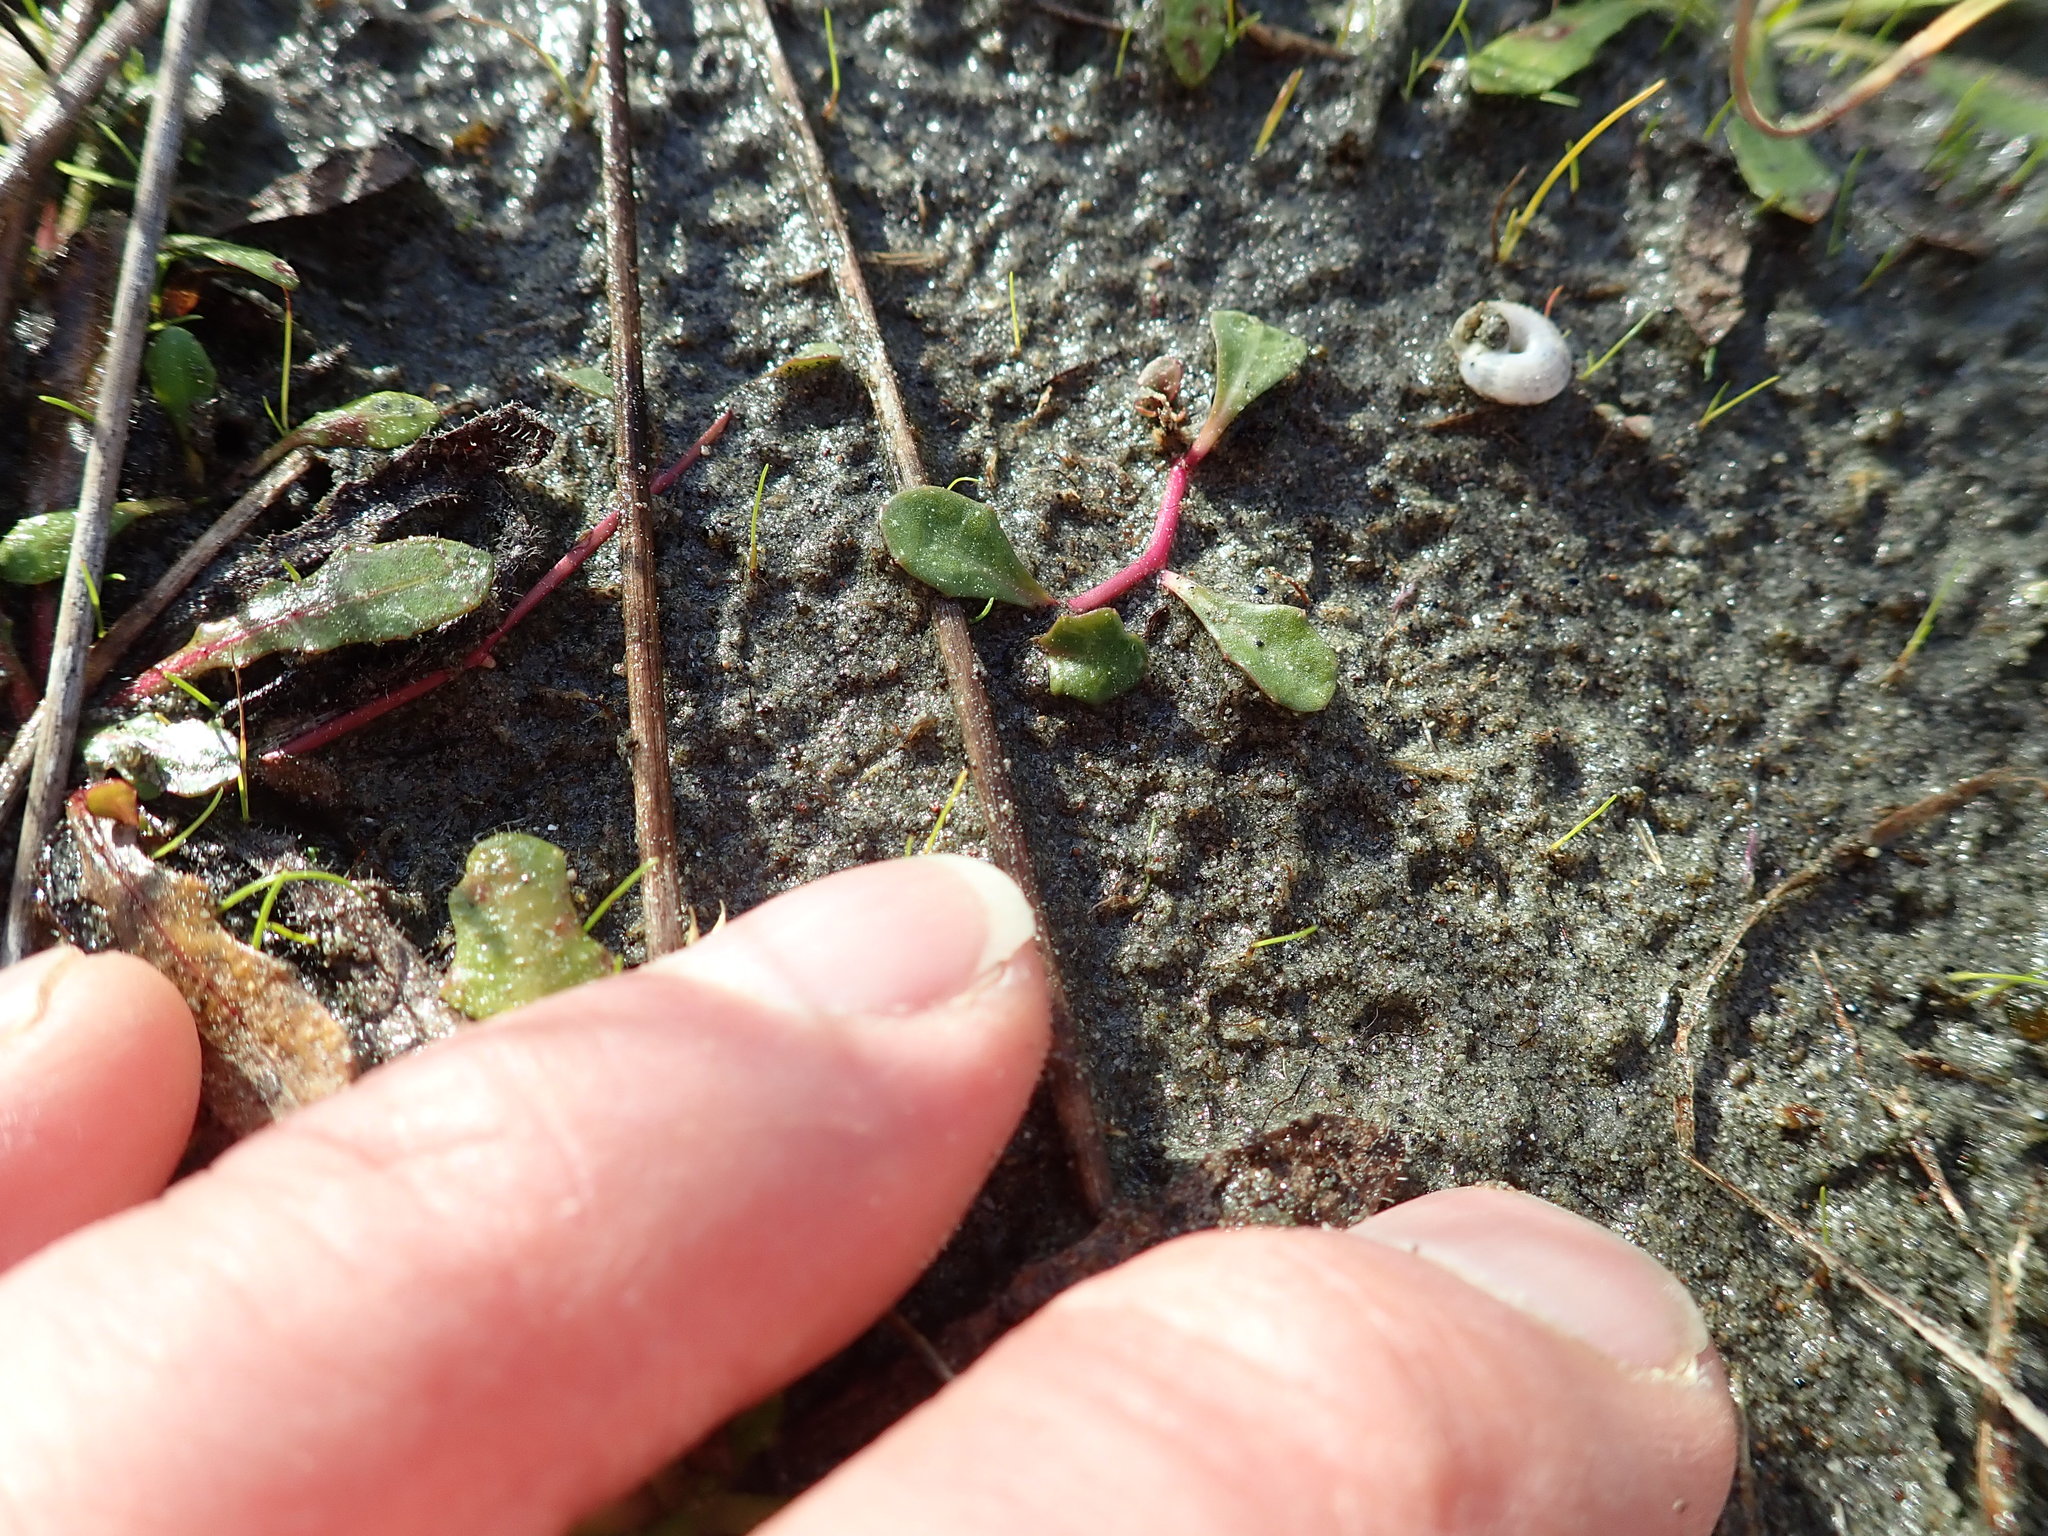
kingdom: Plantae
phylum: Tracheophyta
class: Magnoliopsida
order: Asterales
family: Campanulaceae
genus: Lobelia
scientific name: Lobelia anceps
